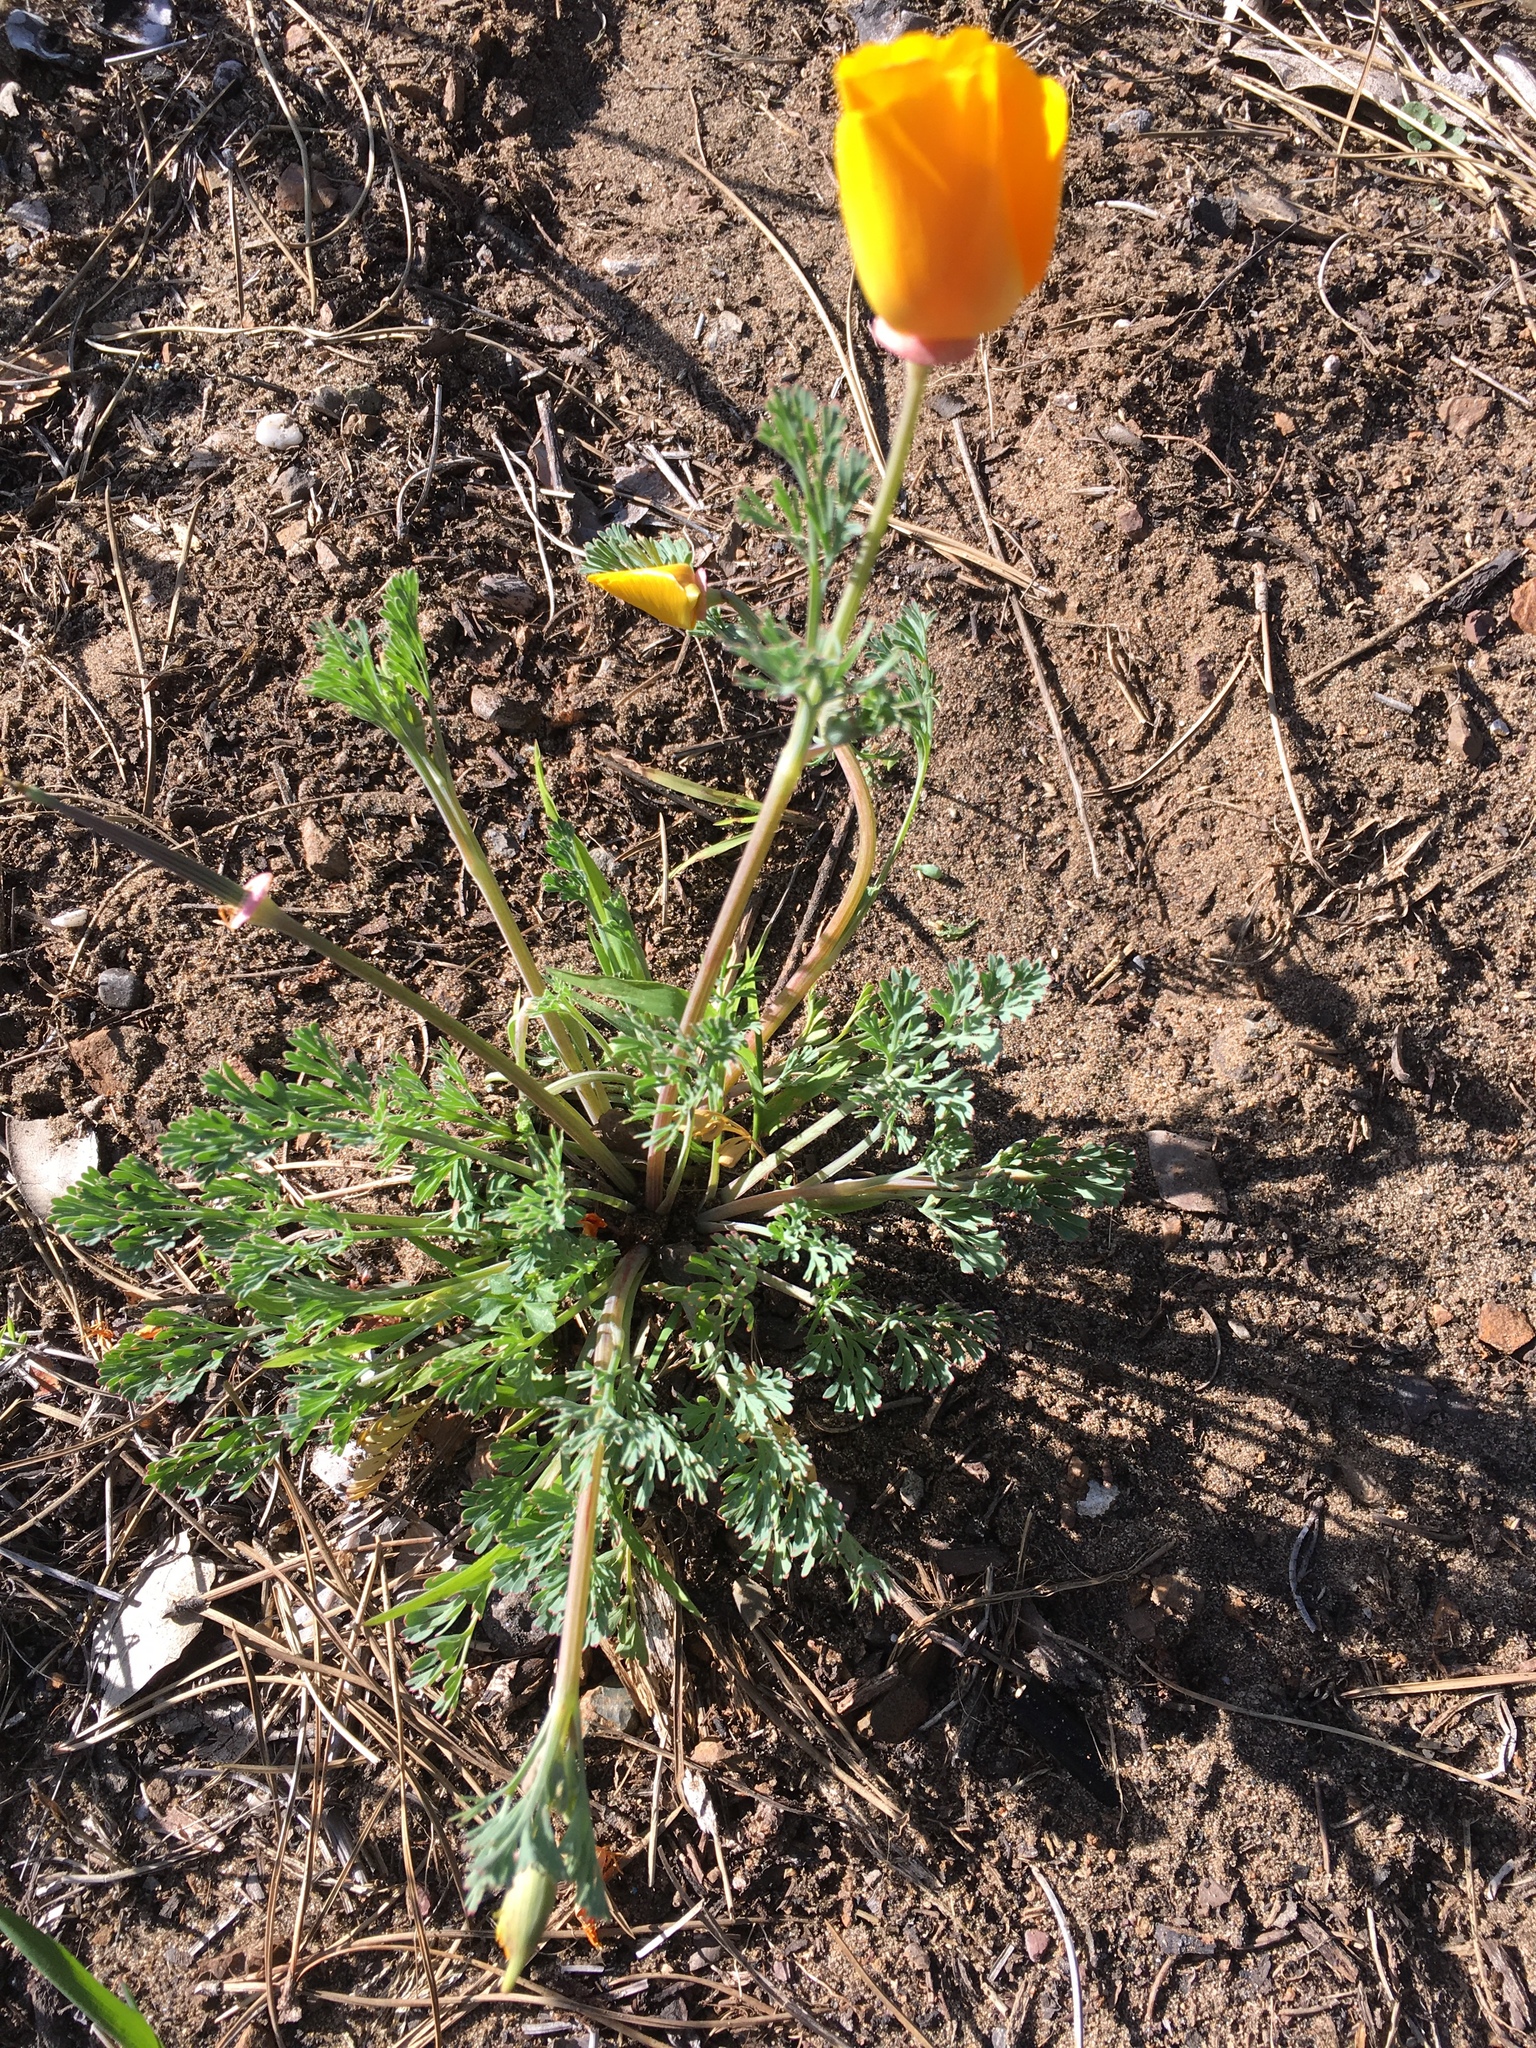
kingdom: Plantae
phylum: Tracheophyta
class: Magnoliopsida
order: Ranunculales
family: Papaveraceae
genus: Eschscholzia
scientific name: Eschscholzia californica
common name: California poppy
